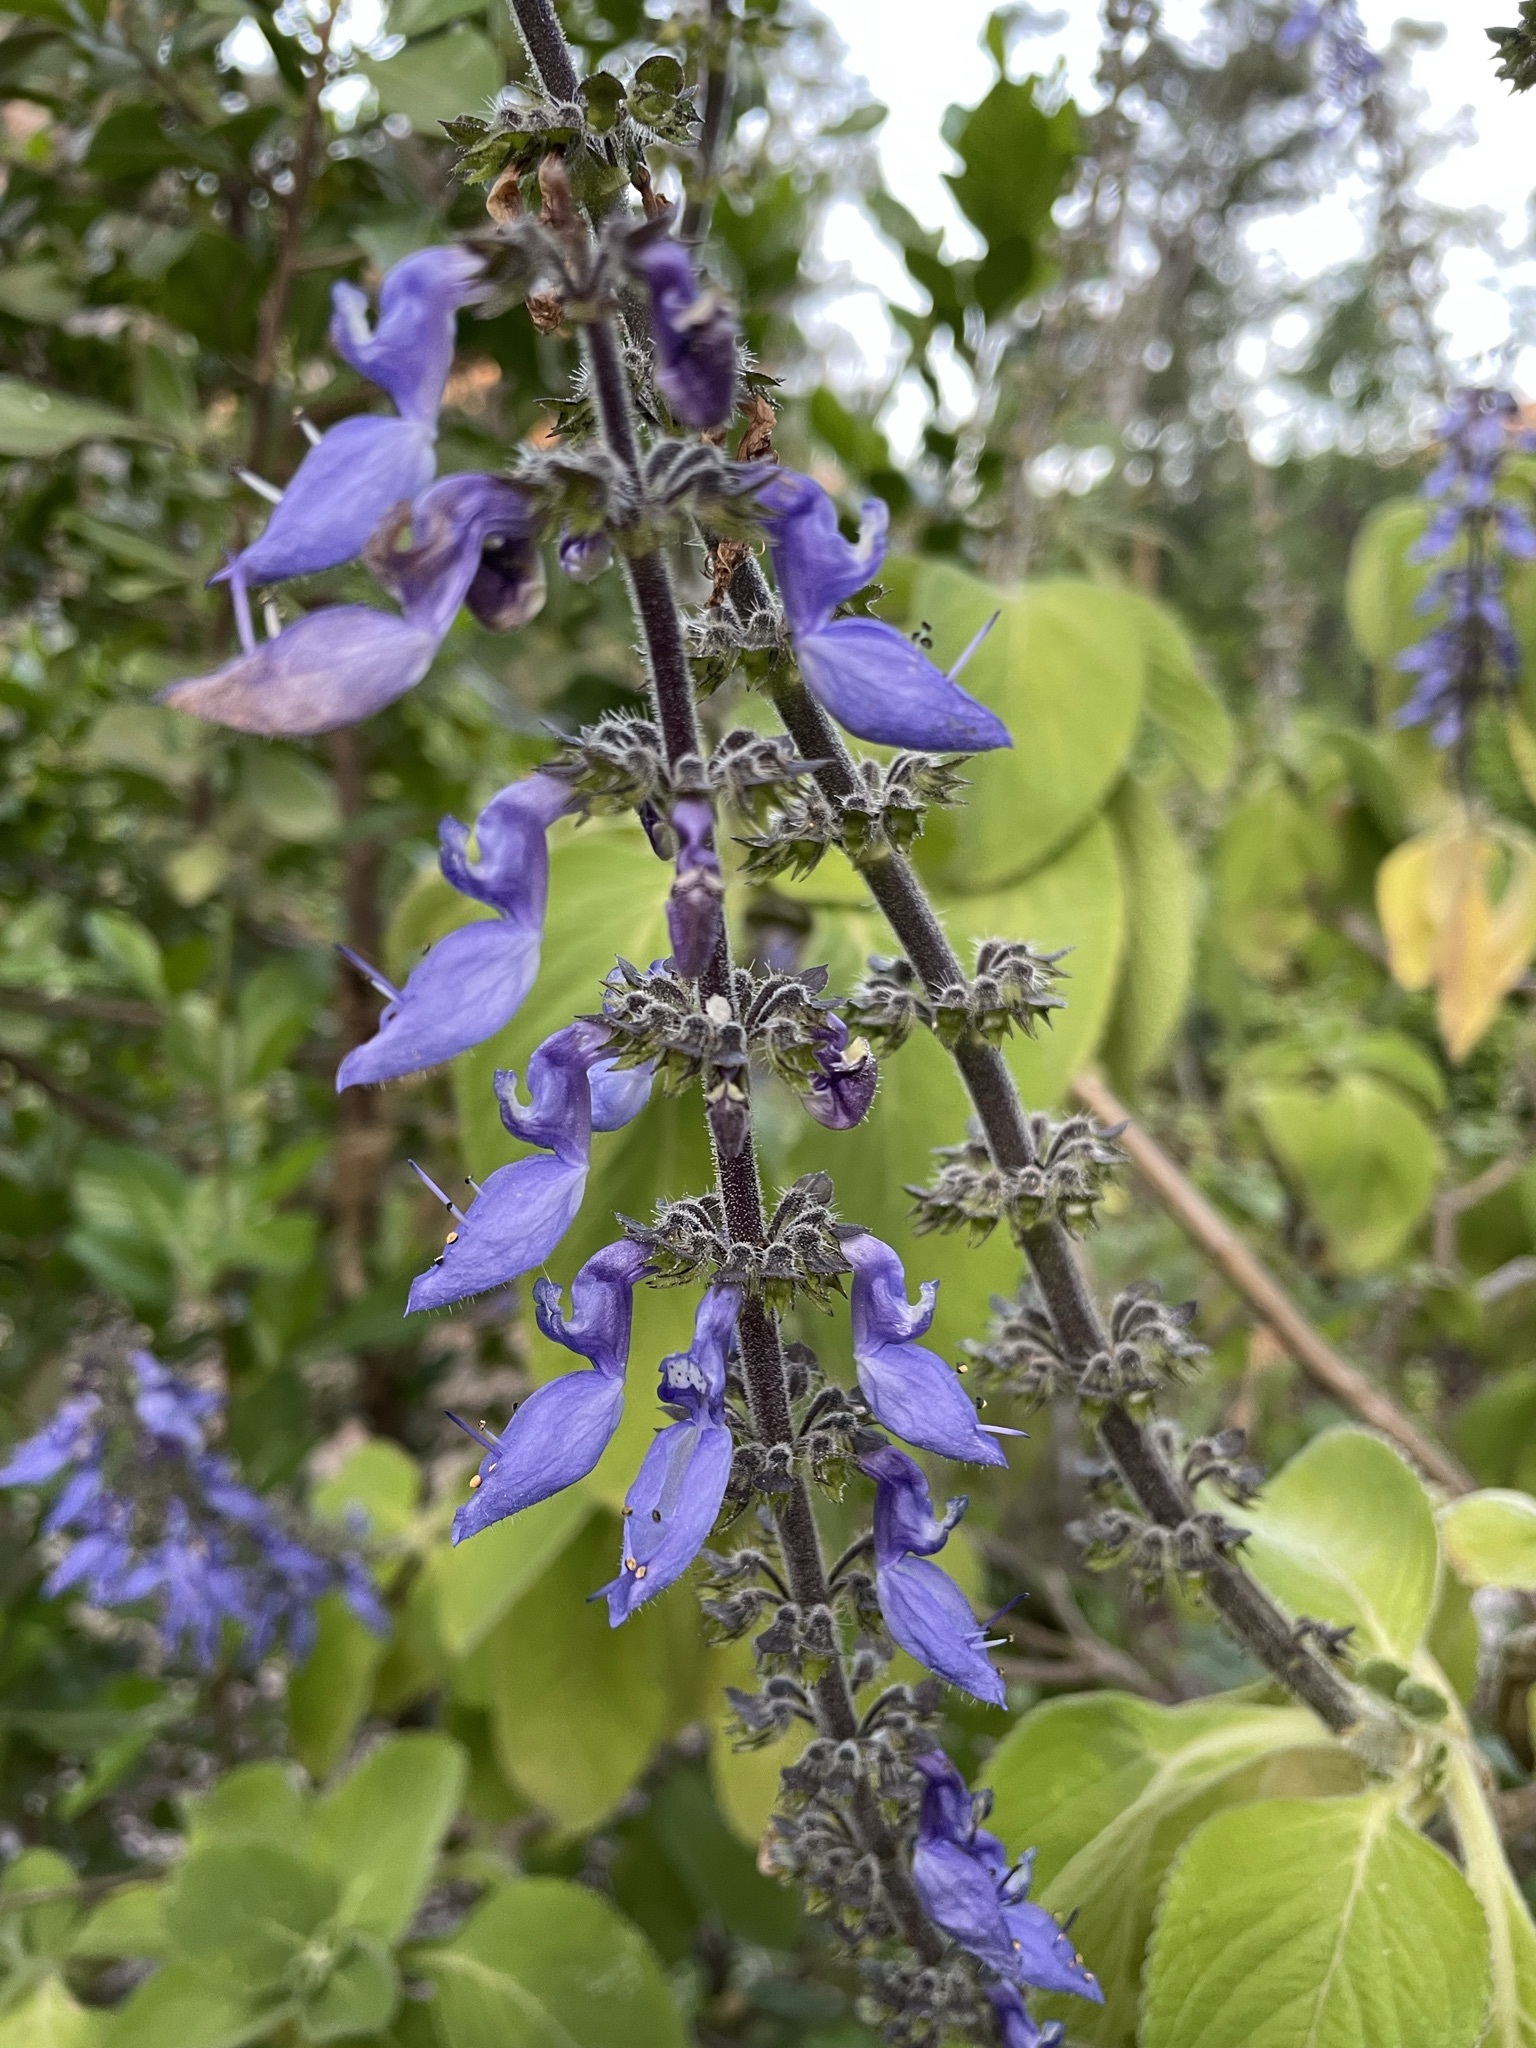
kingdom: Plantae
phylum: Tracheophyta
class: Magnoliopsida
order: Lamiales
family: Lamiaceae
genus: Coleus
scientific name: Coleus barbatus
